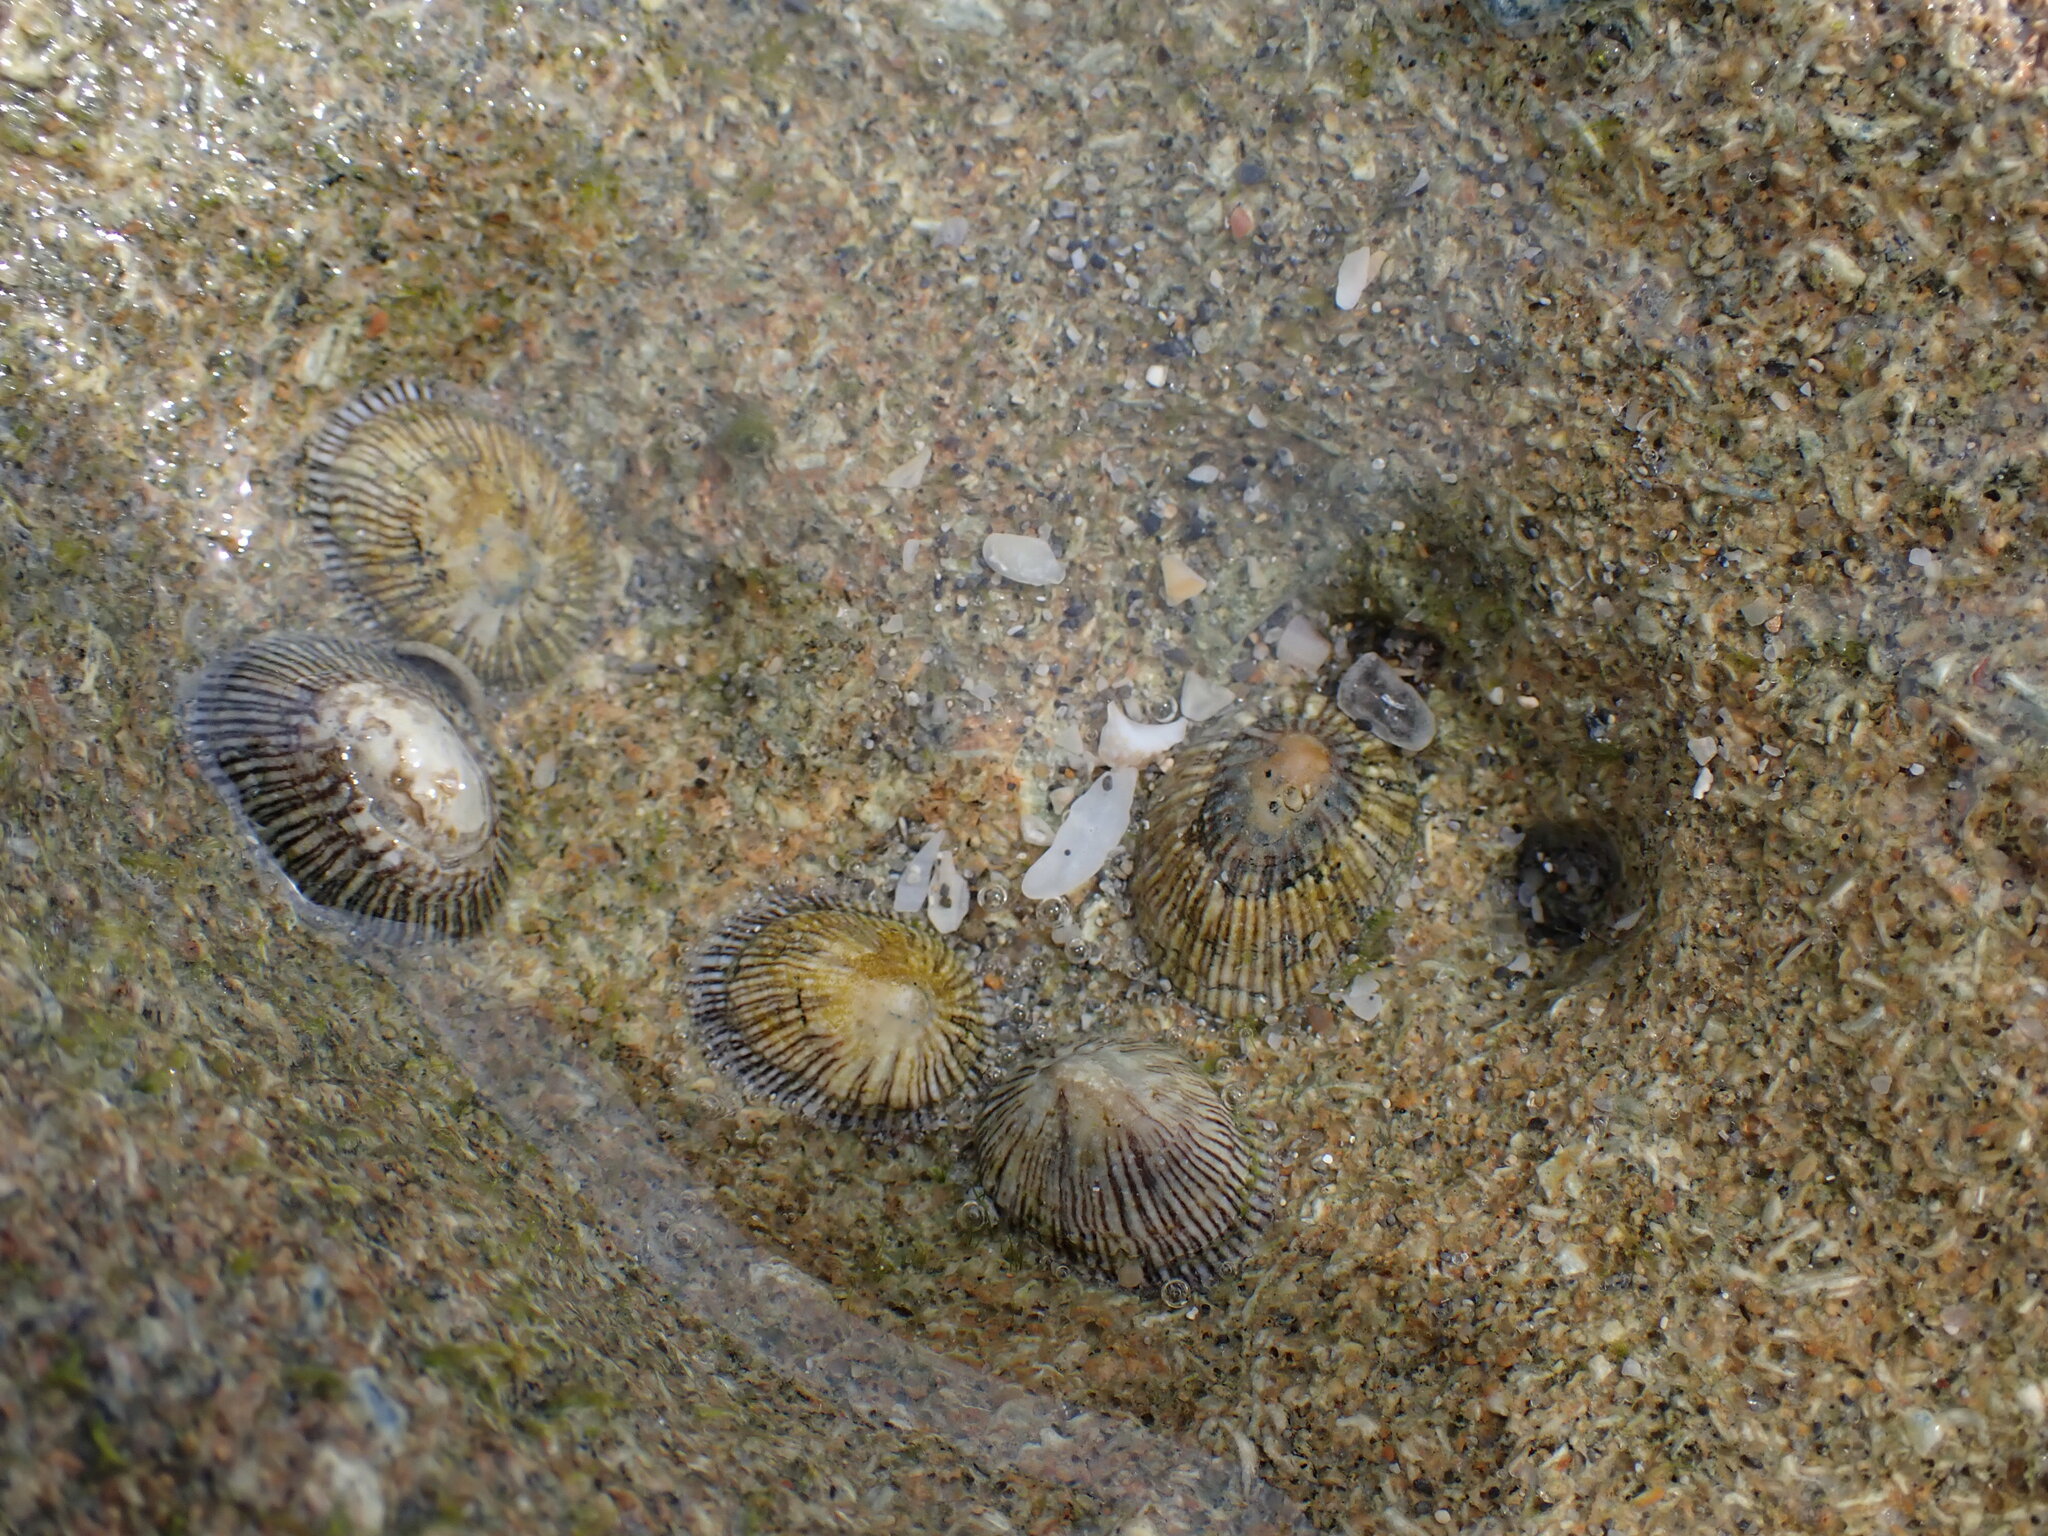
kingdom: Animalia
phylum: Mollusca
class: Gastropoda
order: Siphonariida
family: Siphonariidae
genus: Siphonaria
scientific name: Siphonaria naufragum
